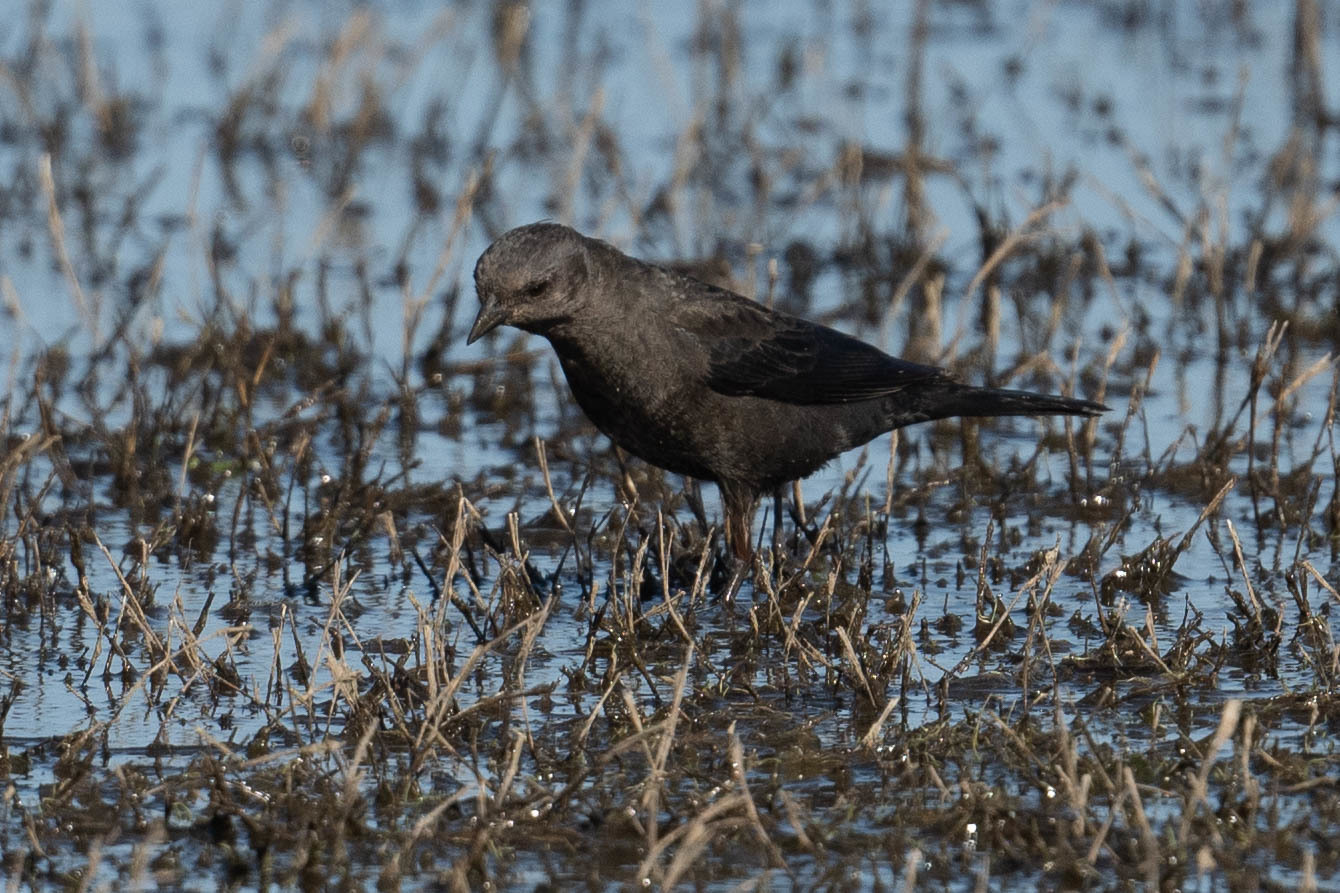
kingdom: Animalia
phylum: Chordata
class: Aves
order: Passeriformes
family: Icteridae
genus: Euphagus
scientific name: Euphagus cyanocephalus
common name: Brewer's blackbird
